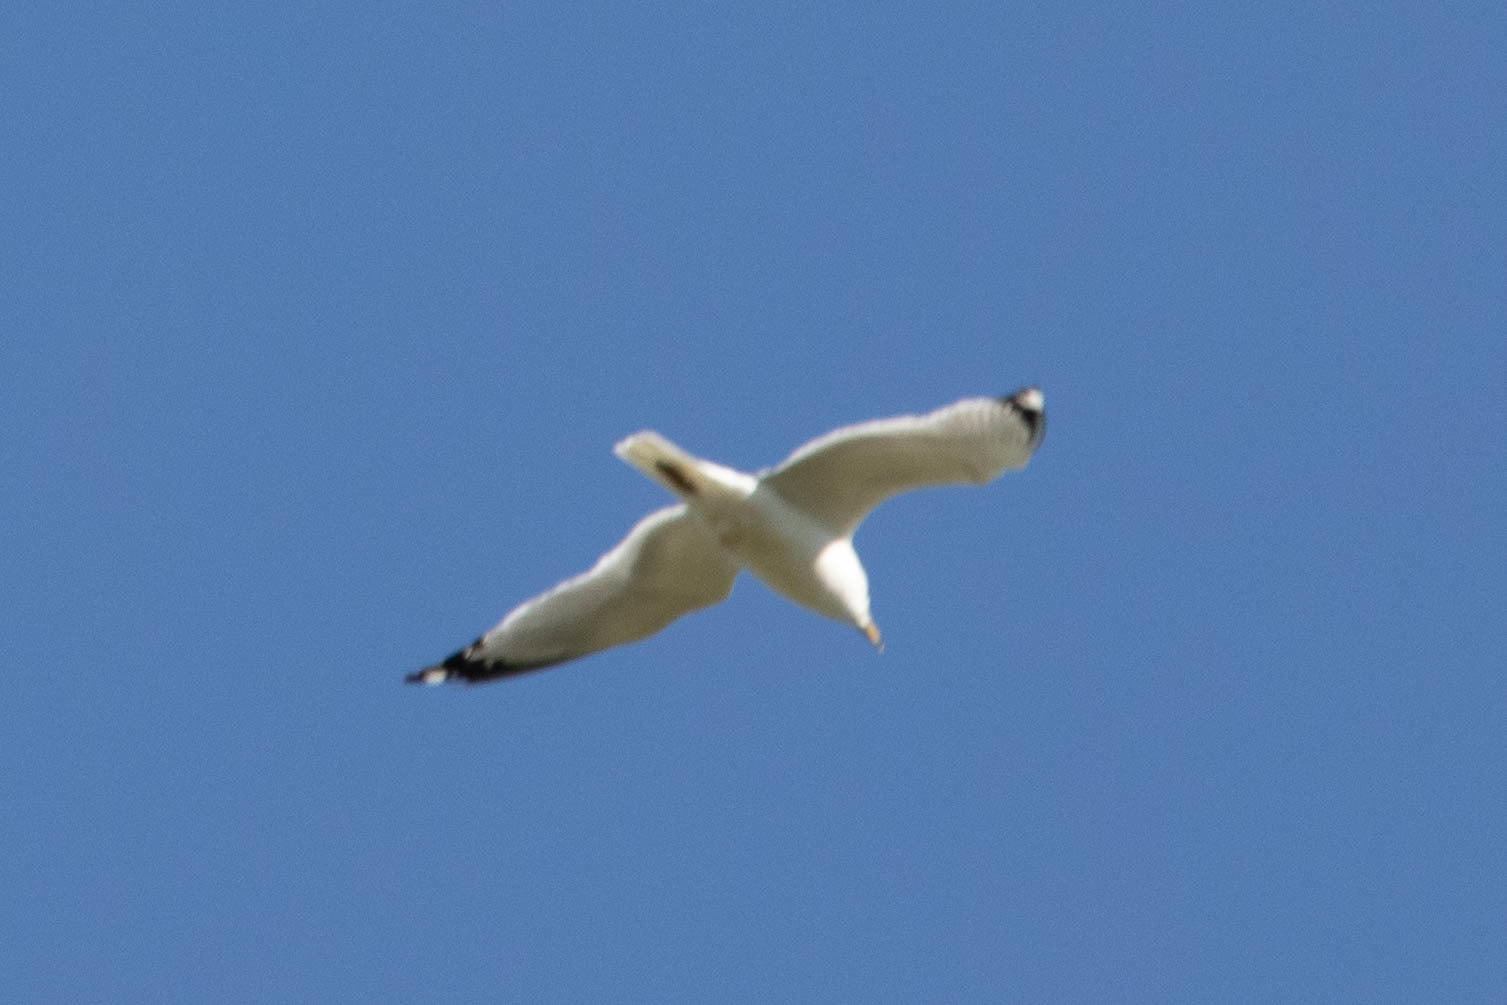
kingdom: Animalia
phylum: Chordata
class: Aves
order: Charadriiformes
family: Laridae
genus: Larus
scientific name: Larus delawarensis
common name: Ring-billed gull
